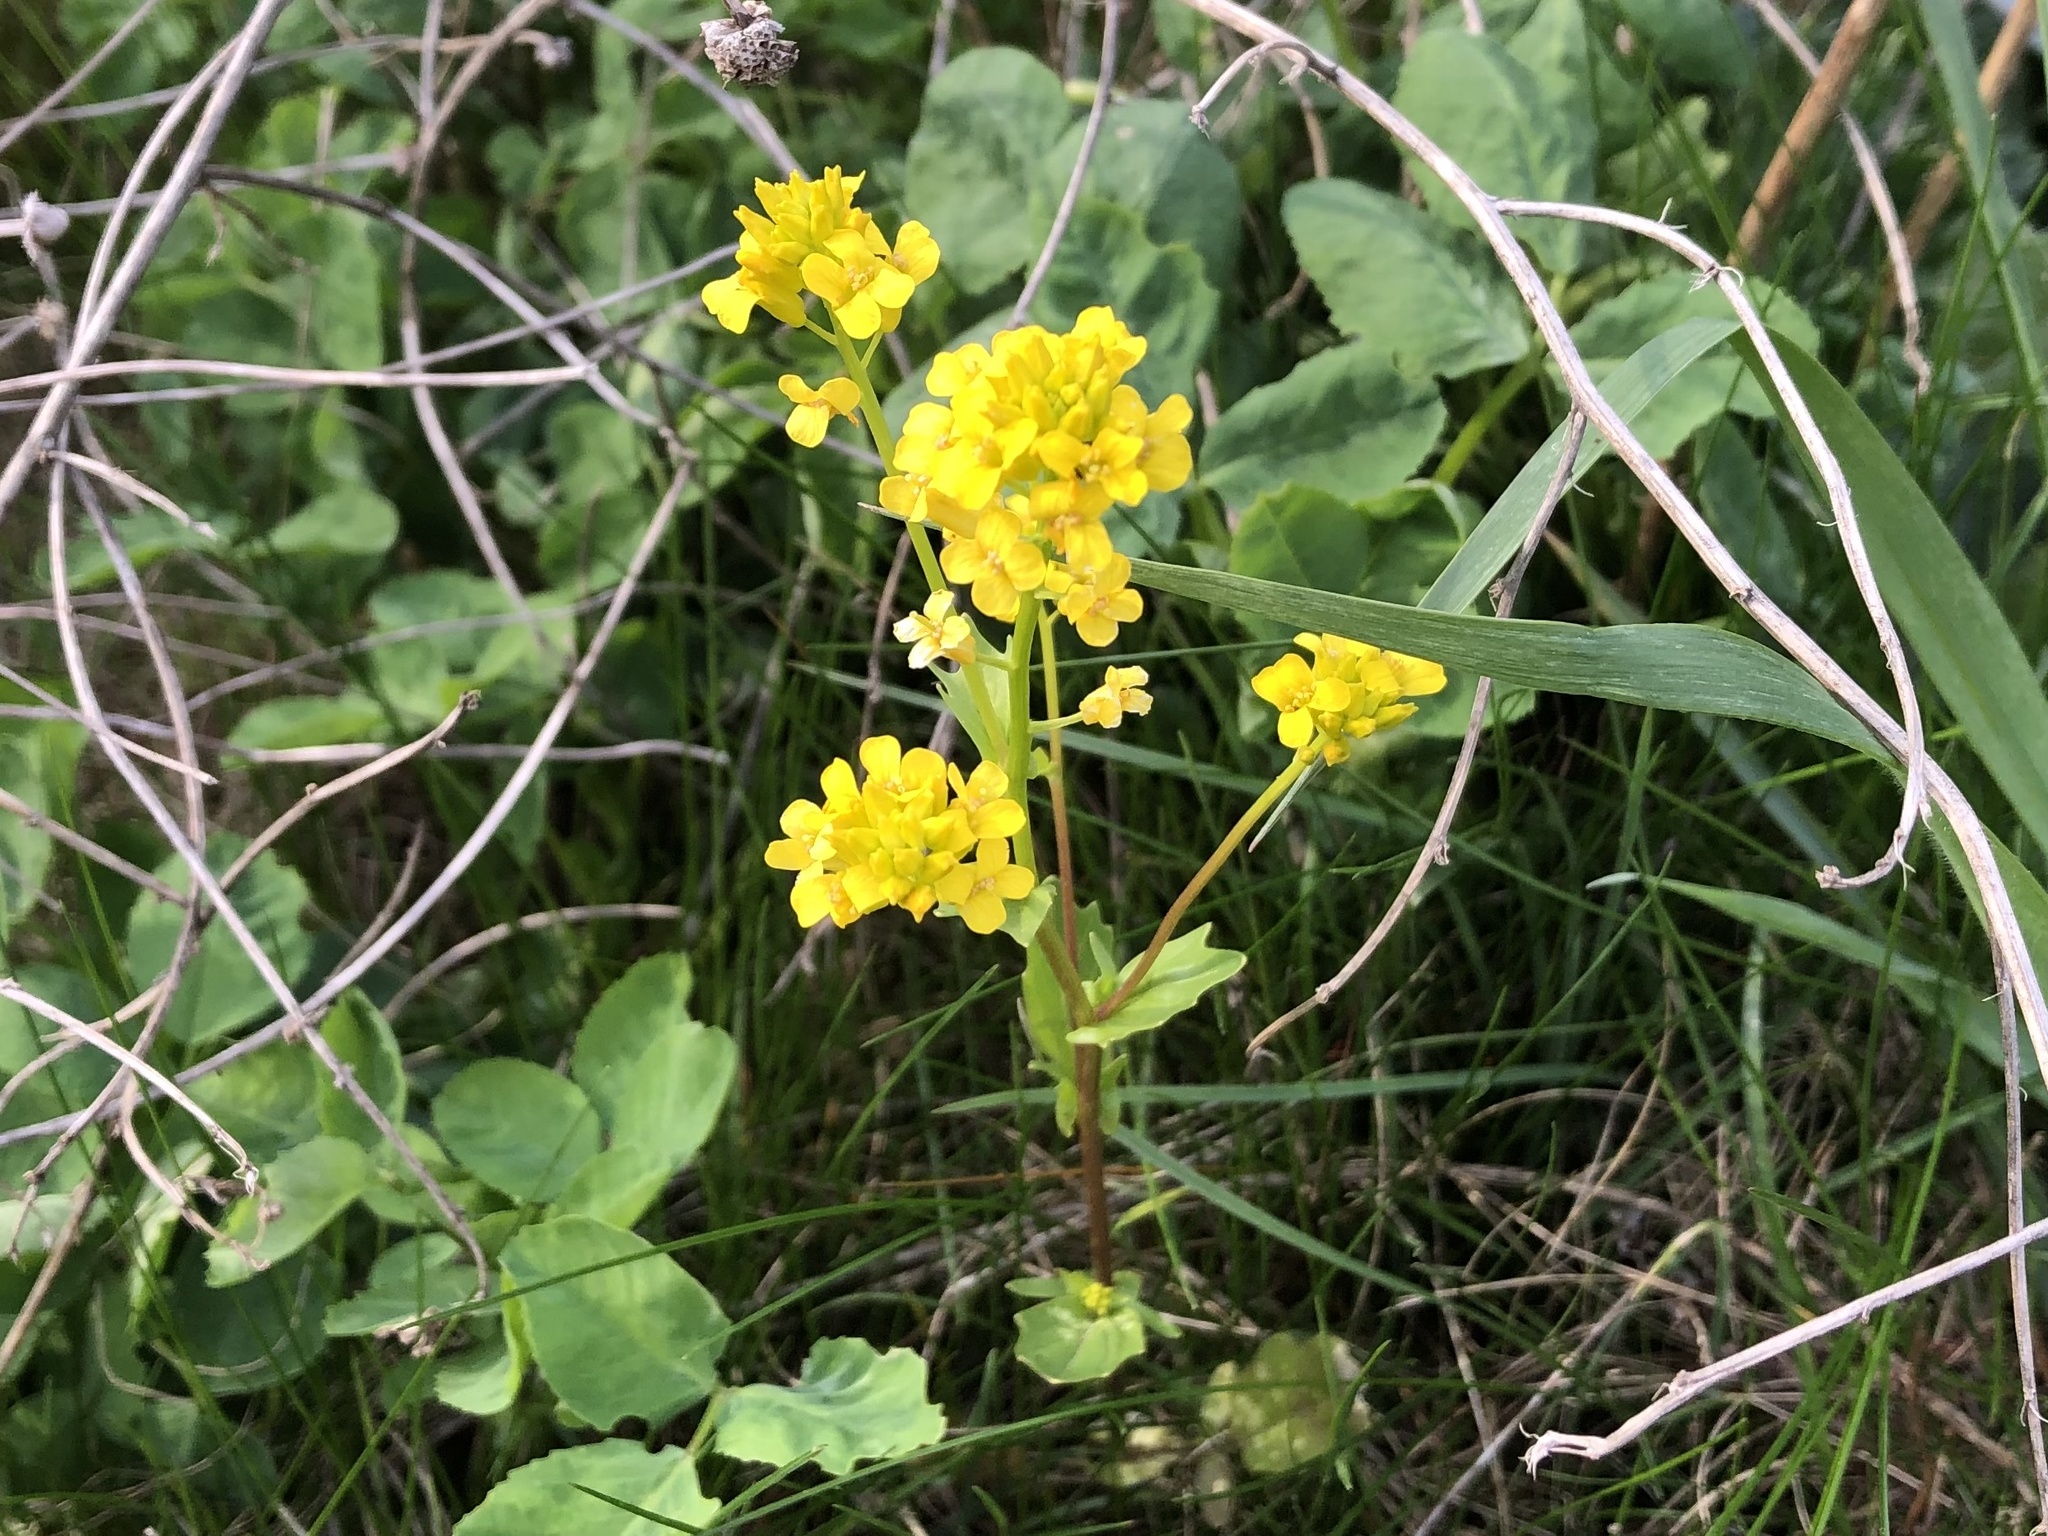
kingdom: Plantae
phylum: Tracheophyta
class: Magnoliopsida
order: Brassicales
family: Brassicaceae
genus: Barbarea
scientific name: Barbarea vulgaris
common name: Cressy-greens
